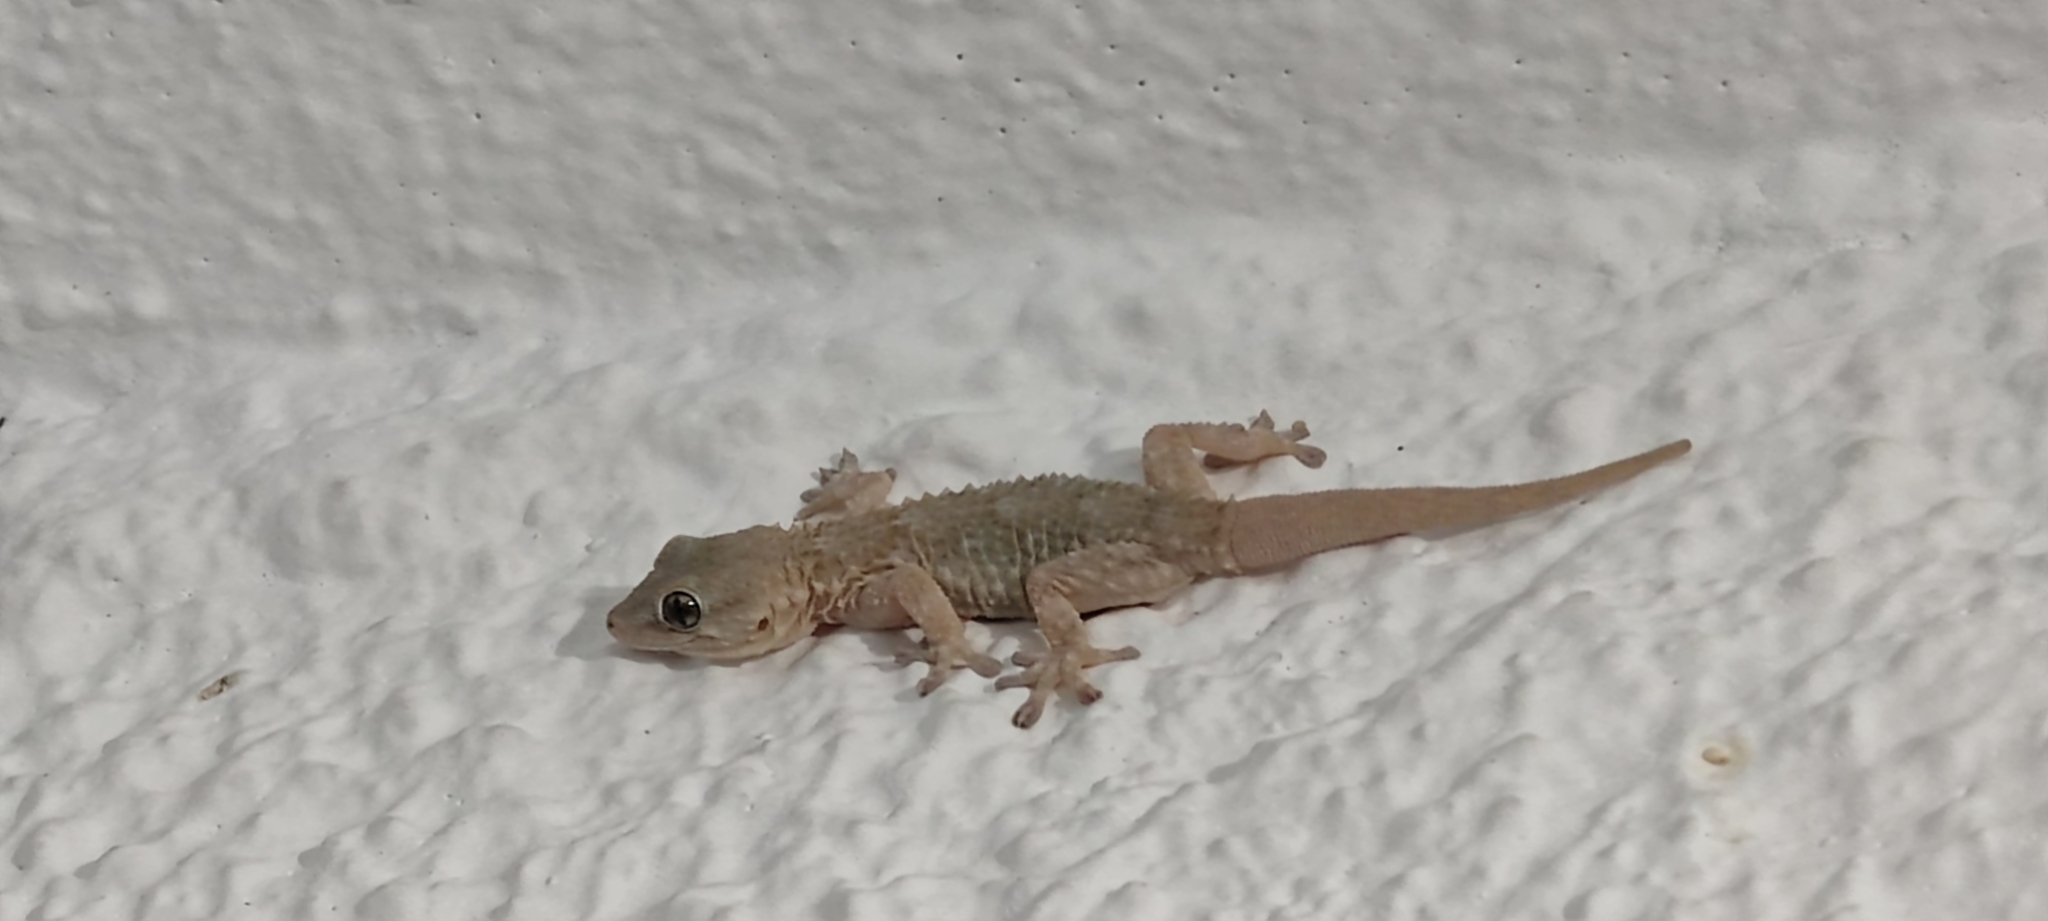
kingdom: Animalia
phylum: Chordata
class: Squamata
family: Phyllodactylidae
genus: Tarentola
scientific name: Tarentola mauritanica
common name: Moorish gecko
